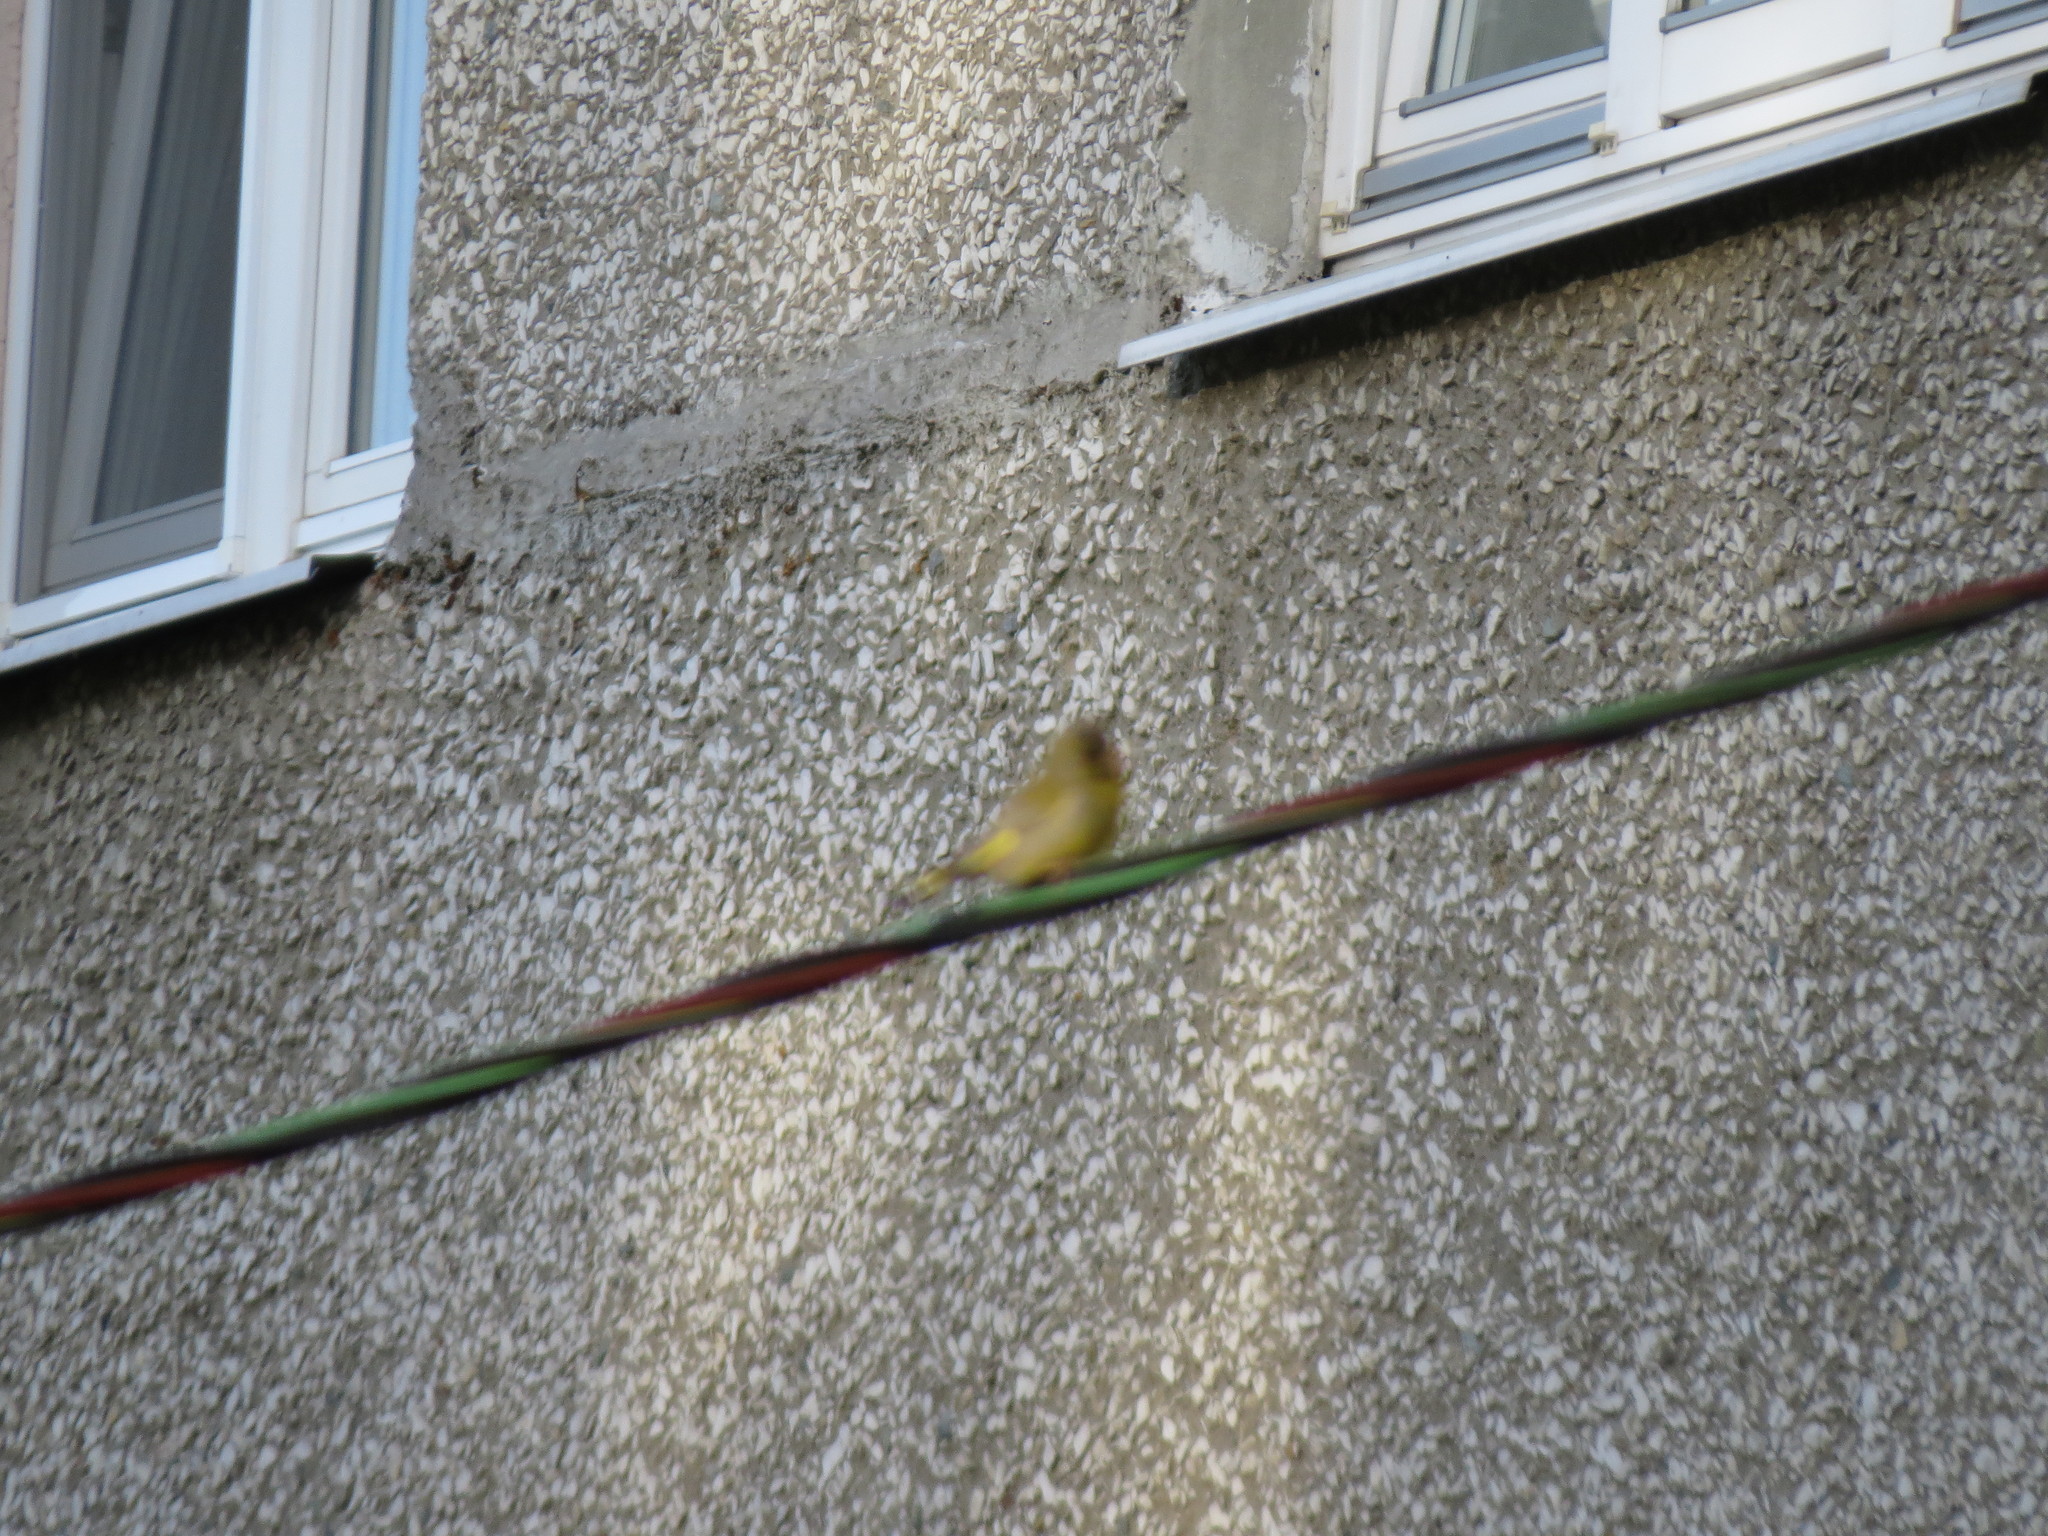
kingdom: Plantae
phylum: Tracheophyta
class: Liliopsida
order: Poales
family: Poaceae
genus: Chloris
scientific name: Chloris chloris
